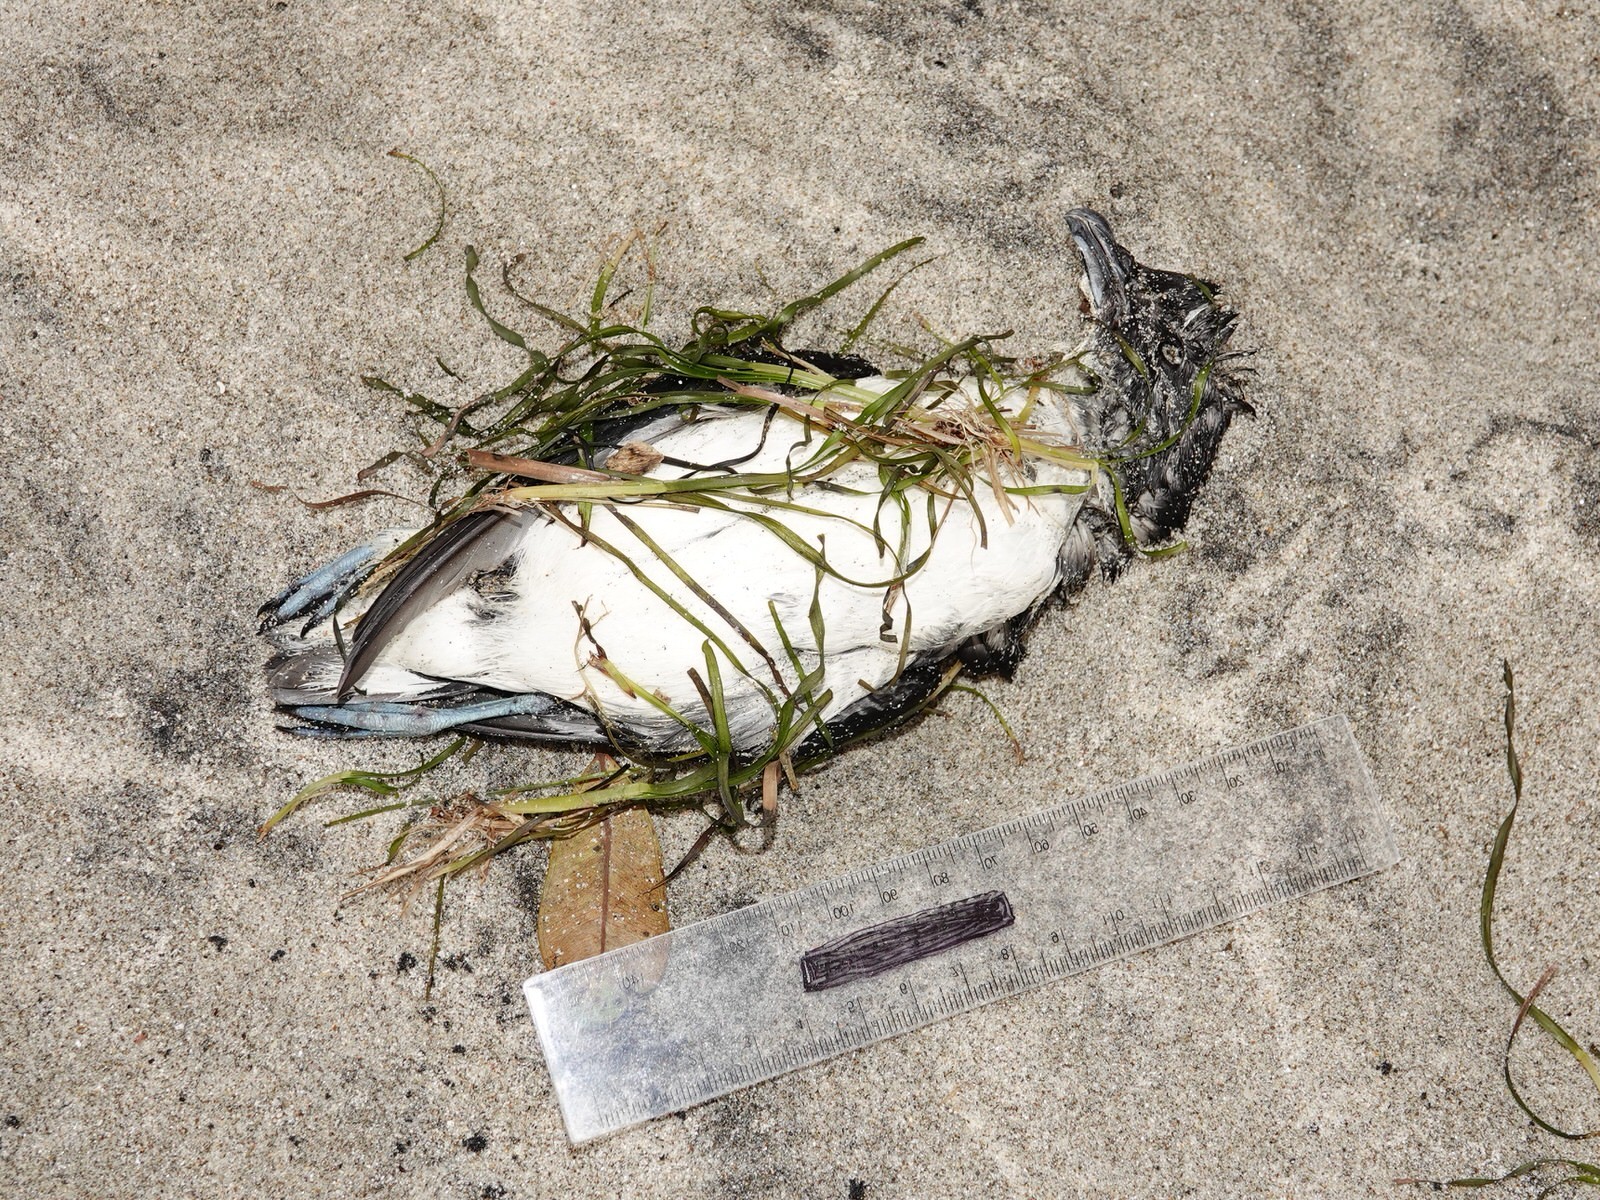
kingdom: Animalia
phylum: Chordata
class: Aves
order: Procellariiformes
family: Pelecanoididae
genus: Pelecanoides
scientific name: Pelecanoides urinatrix
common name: Common diving-petrel
